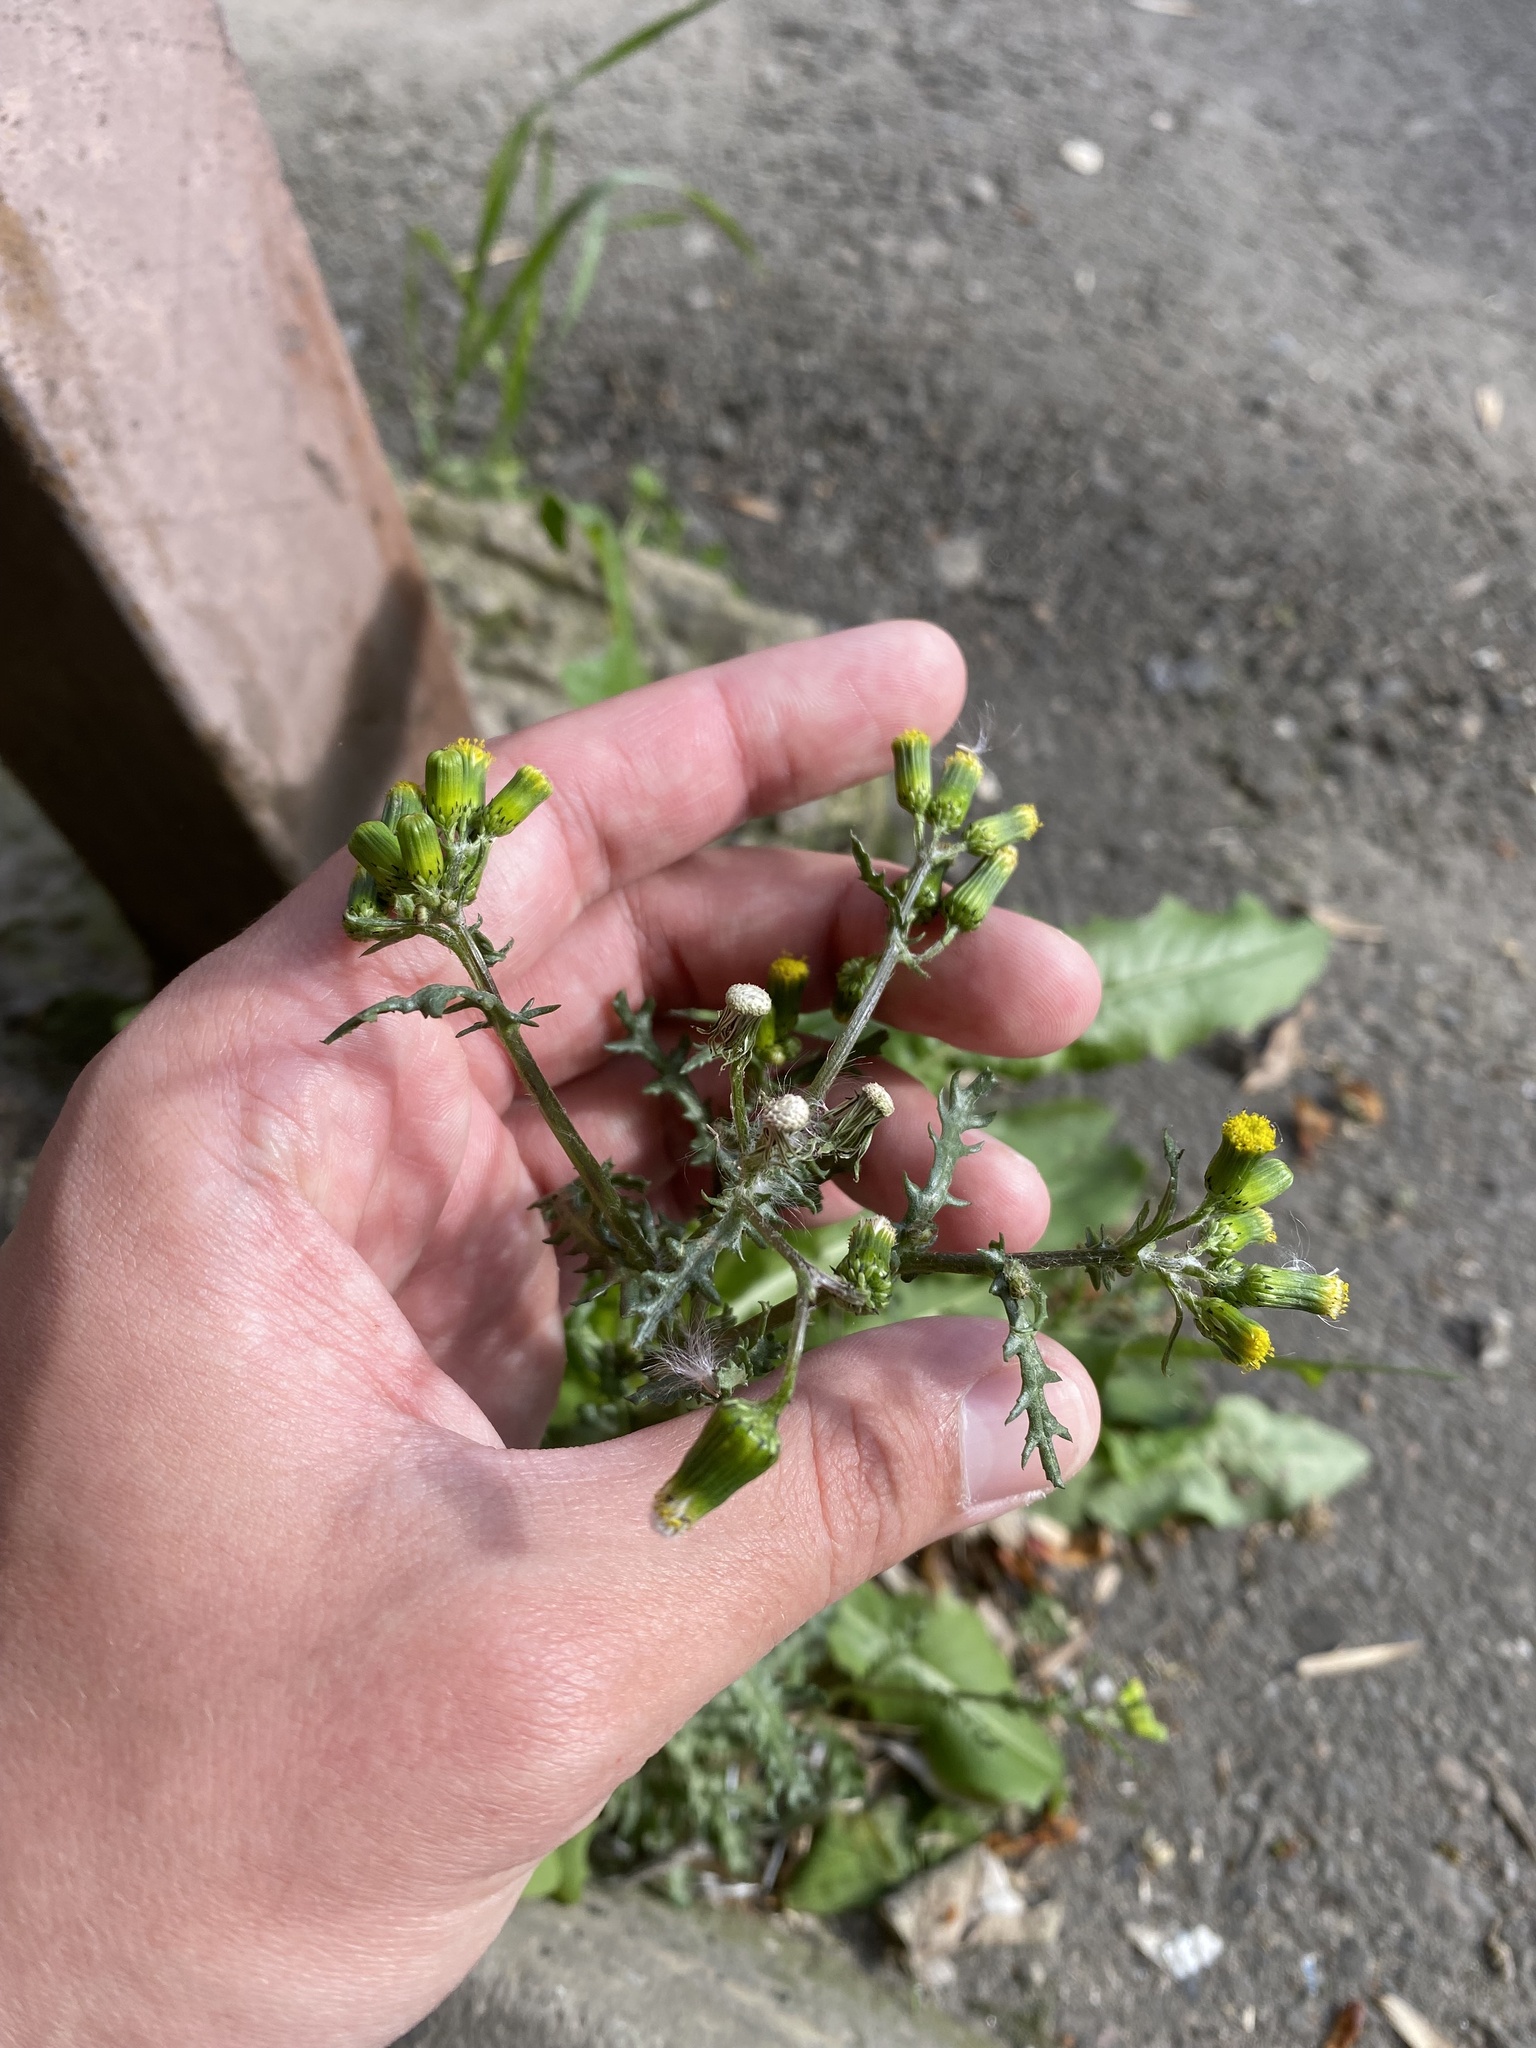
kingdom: Plantae
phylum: Tracheophyta
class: Magnoliopsida
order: Asterales
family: Asteraceae
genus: Senecio
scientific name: Senecio vulgaris
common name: Old-man-in-the-spring
